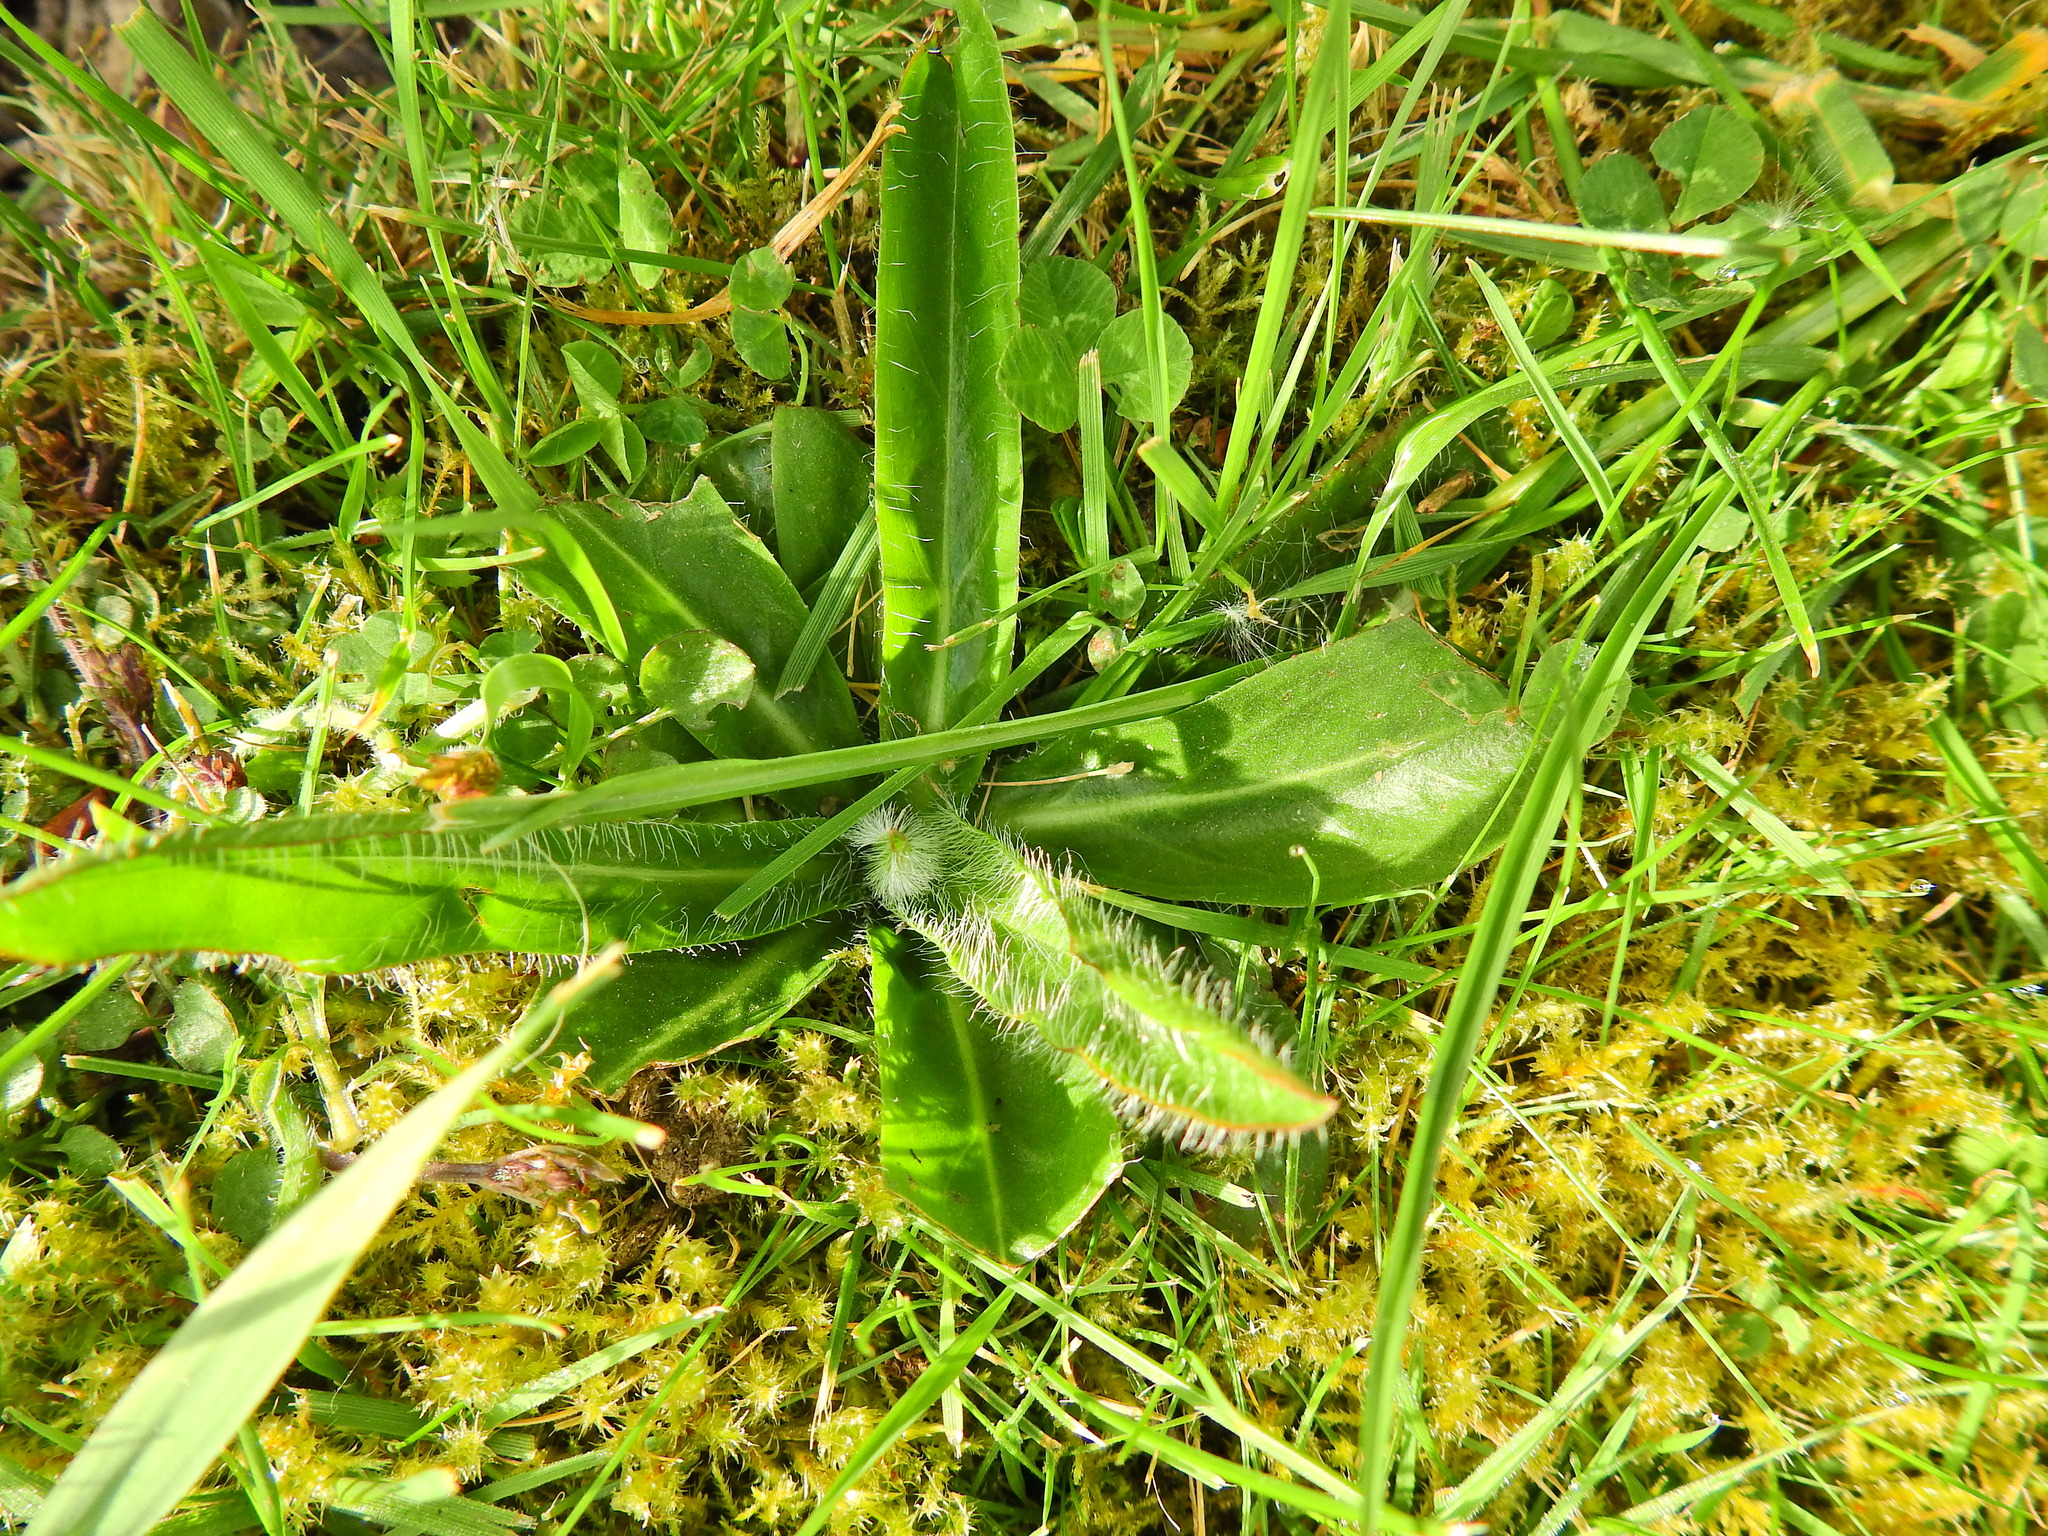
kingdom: Plantae
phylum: Tracheophyta
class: Magnoliopsida
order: Asterales
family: Asteraceae
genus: Pilosella
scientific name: Pilosella aurantiaca
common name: Fox-and-cubs
